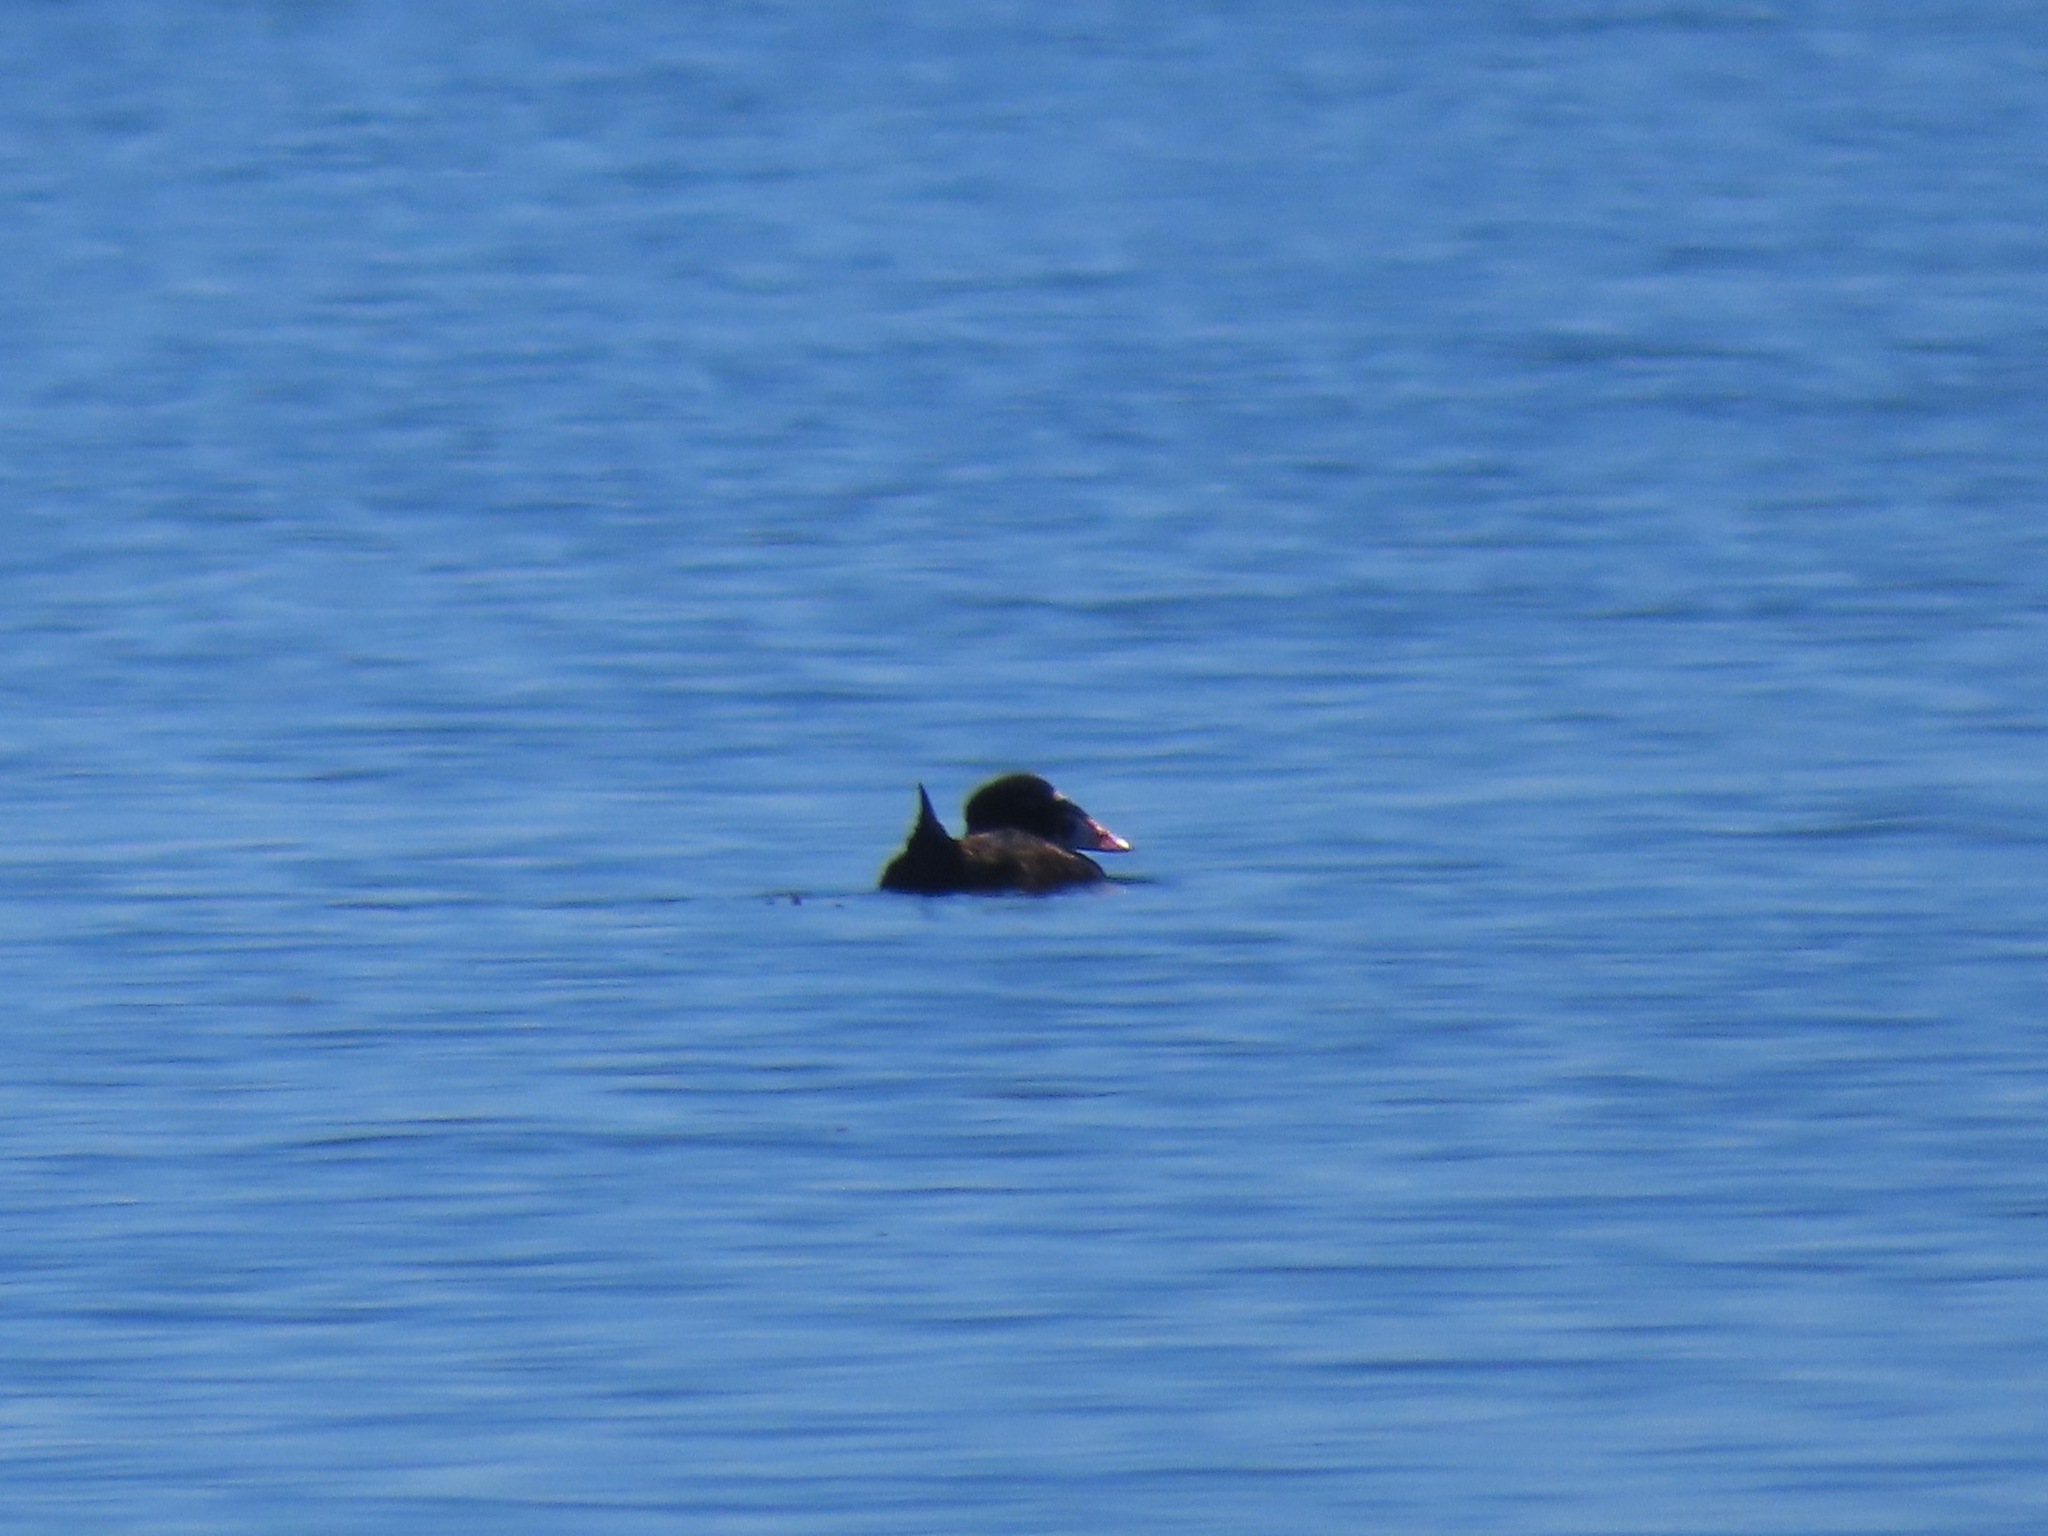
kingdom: Animalia
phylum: Chordata
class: Aves
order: Anseriformes
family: Anatidae
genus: Melanitta
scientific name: Melanitta perspicillata
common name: Surf scoter
